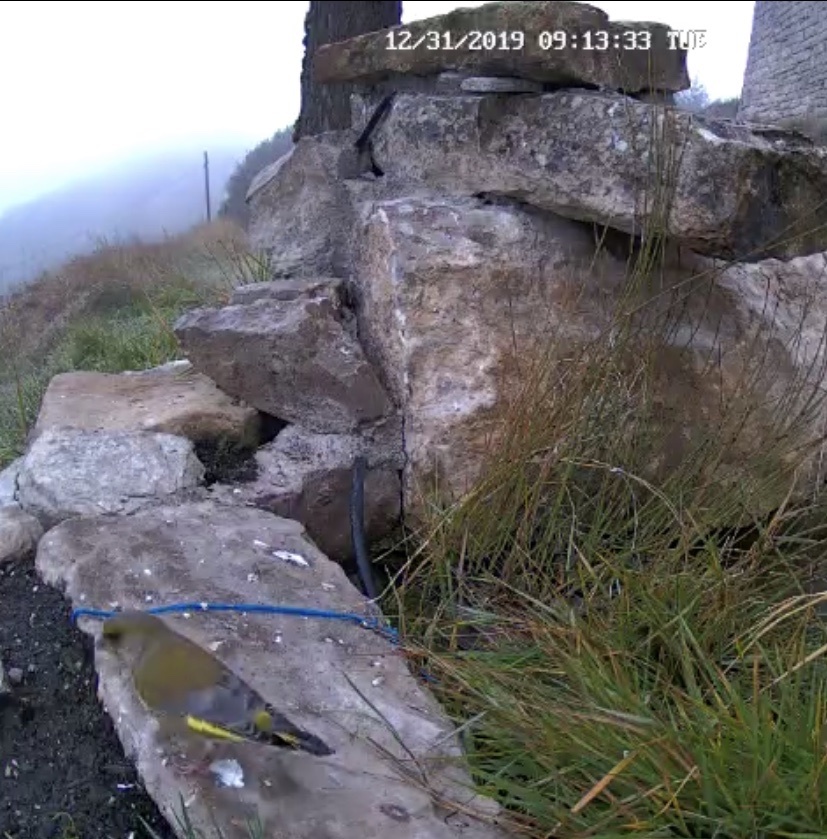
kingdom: Plantae
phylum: Tracheophyta
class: Liliopsida
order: Poales
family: Poaceae
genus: Chloris
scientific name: Chloris chloris
